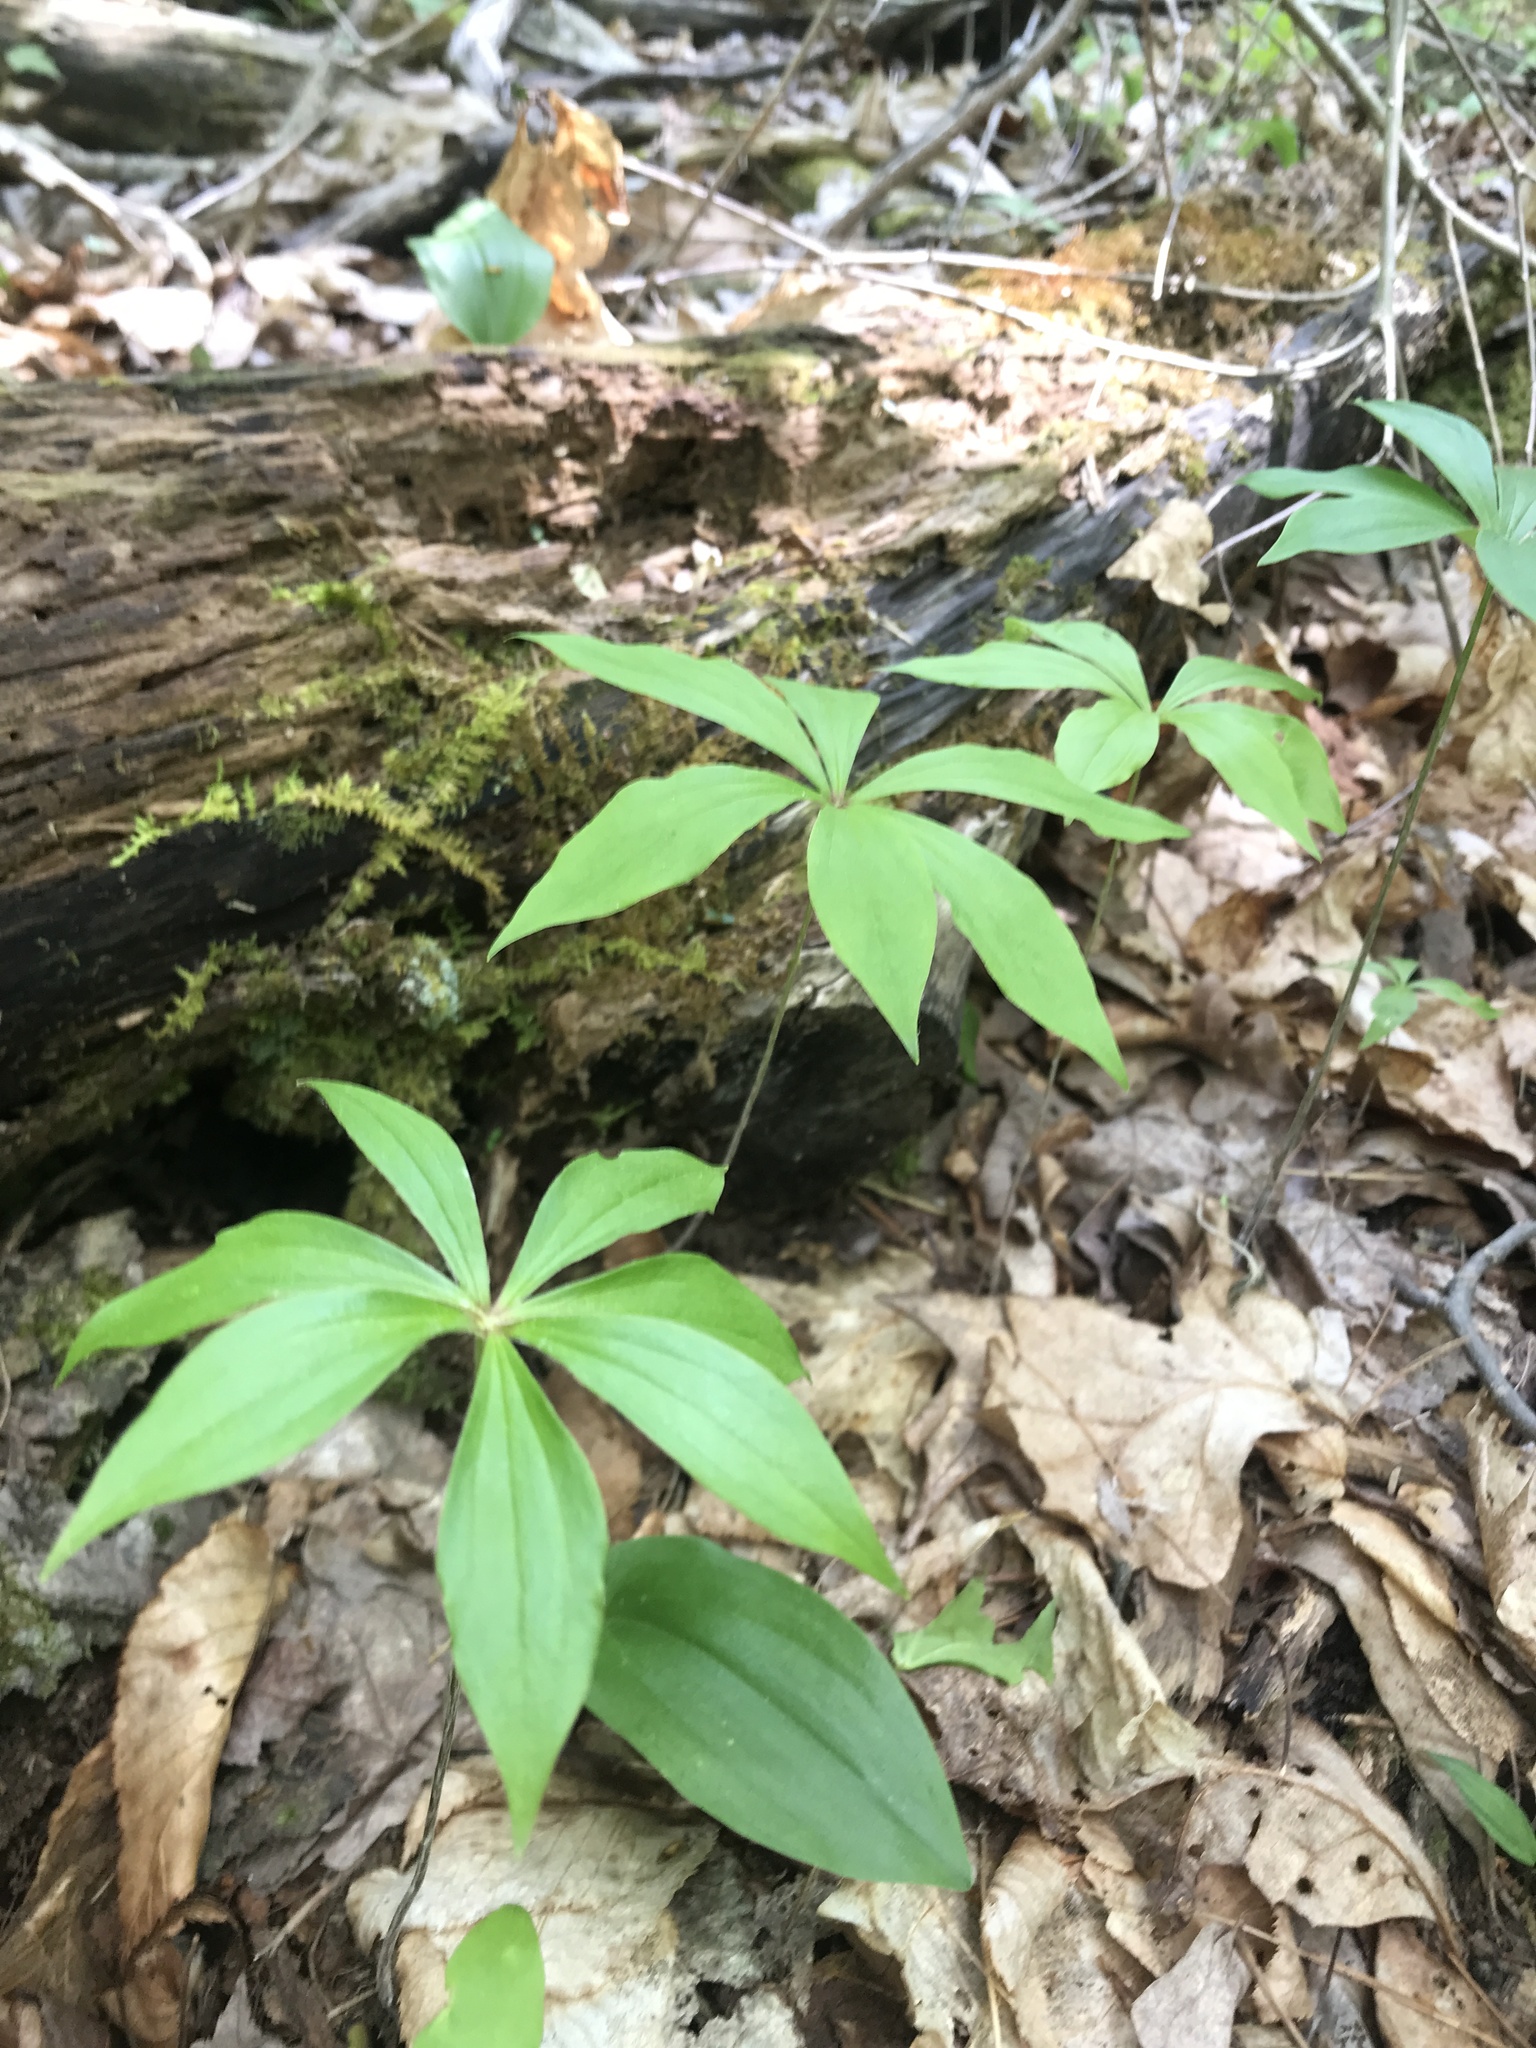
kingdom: Plantae
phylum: Tracheophyta
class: Liliopsida
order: Liliales
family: Liliaceae
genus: Medeola
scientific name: Medeola virginiana
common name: Indian cucumber-root
